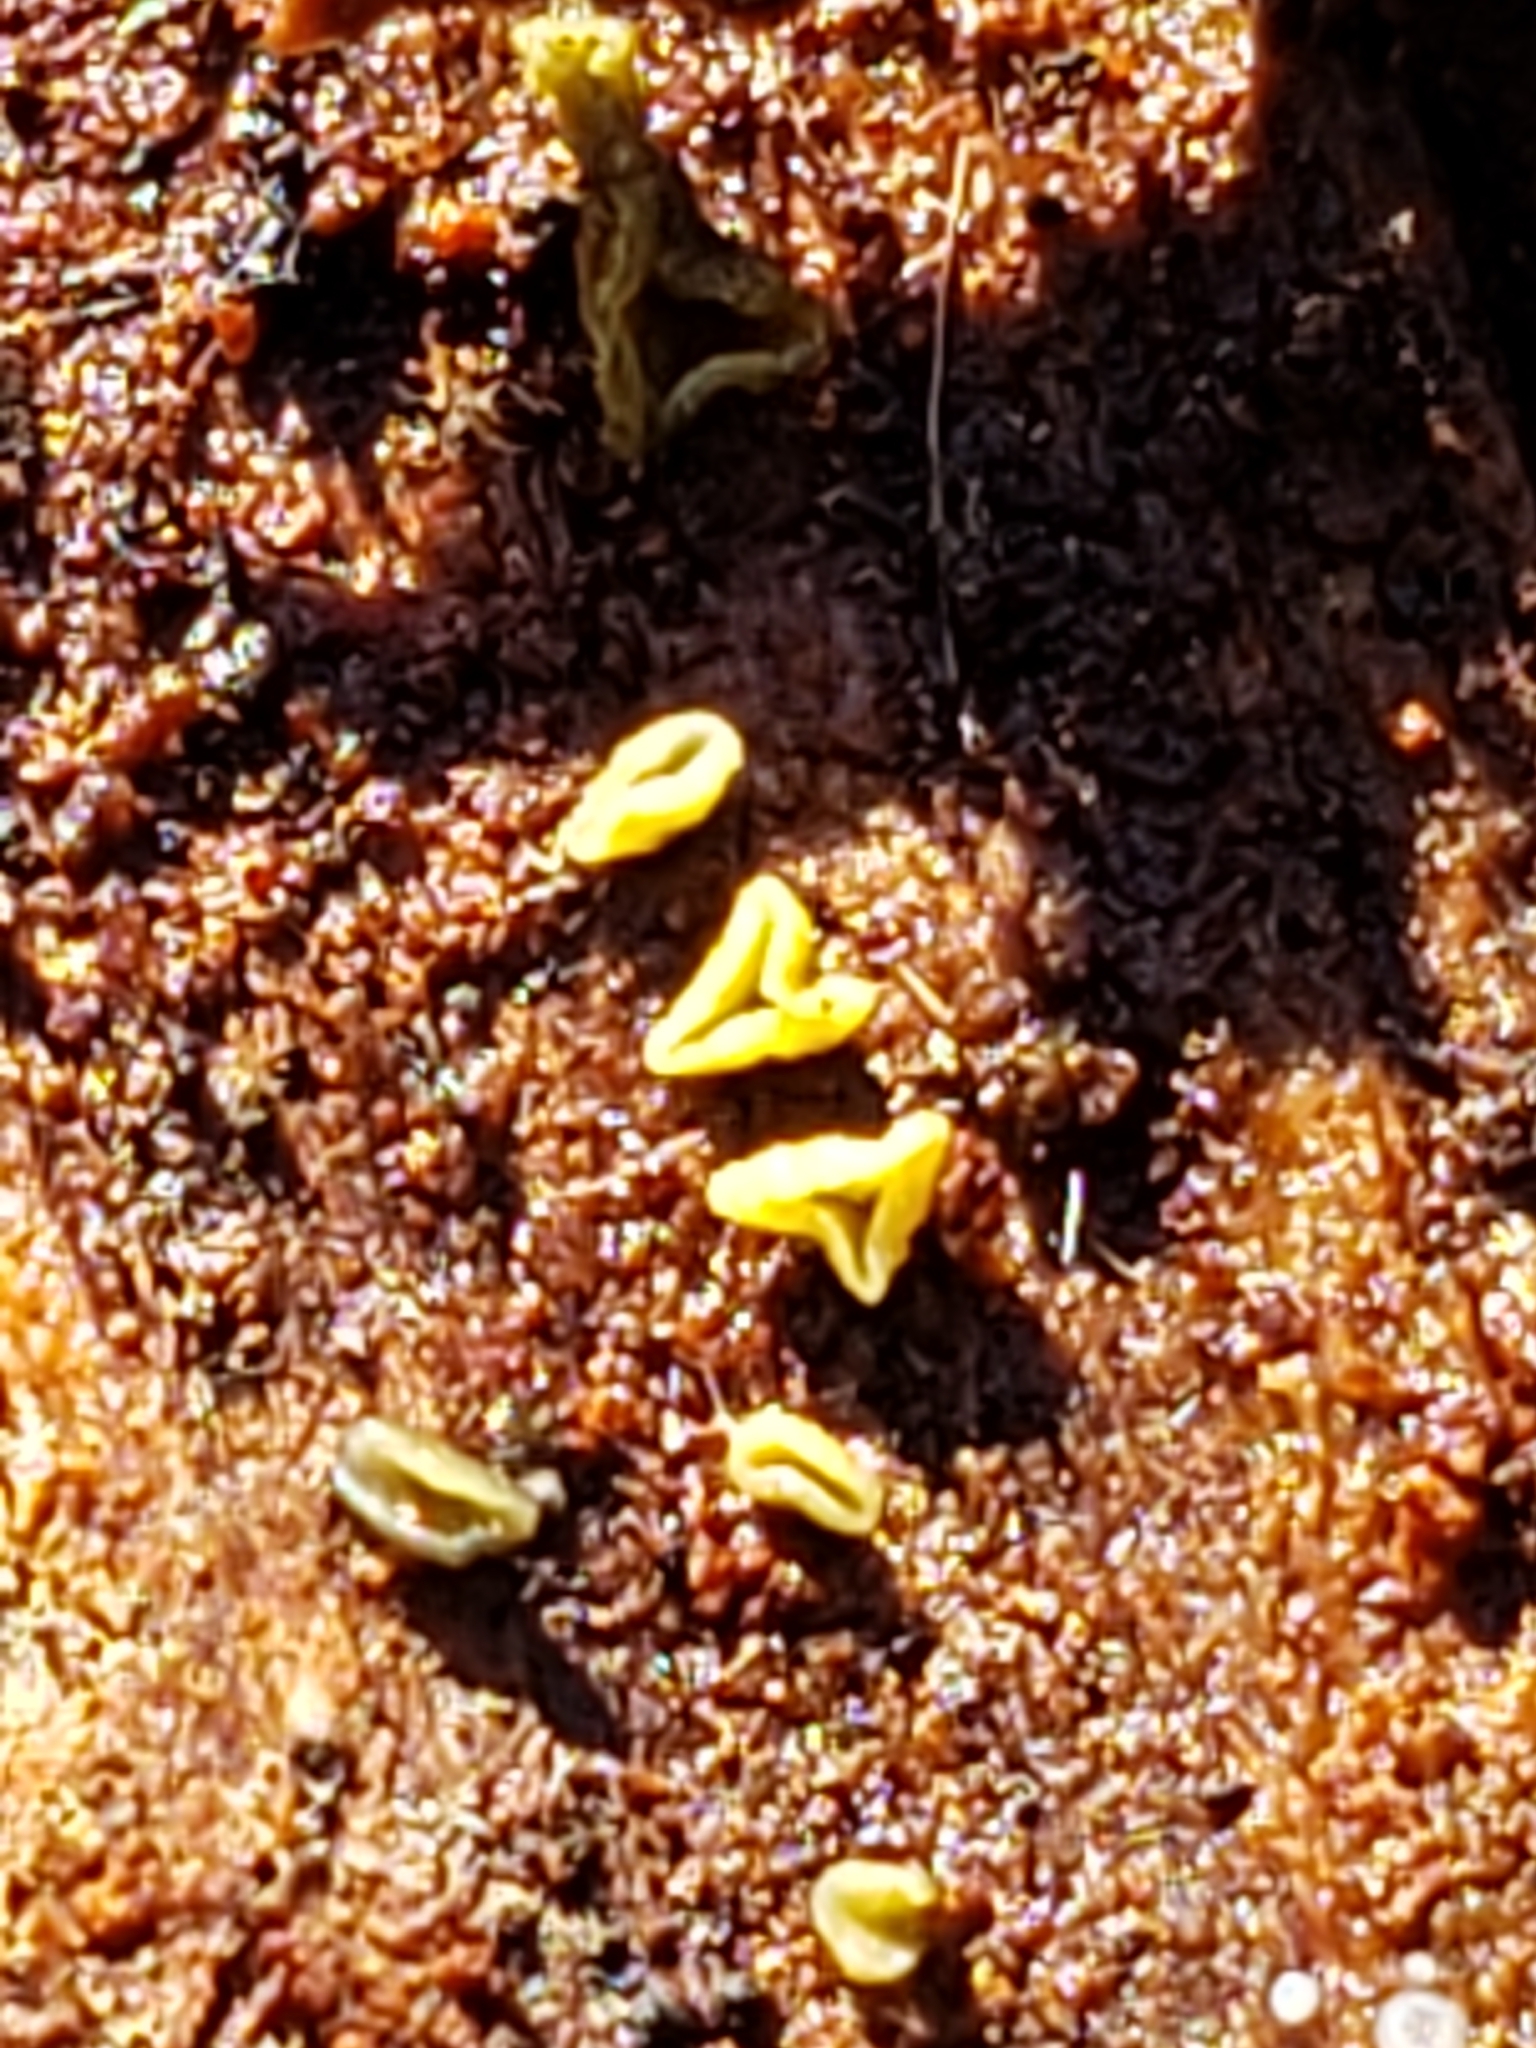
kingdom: Fungi
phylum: Ascomycota
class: Leotiomycetes
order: Helotiales
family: Chlorospleniaceae
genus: Chlorosplenium
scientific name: Chlorosplenium chlora
